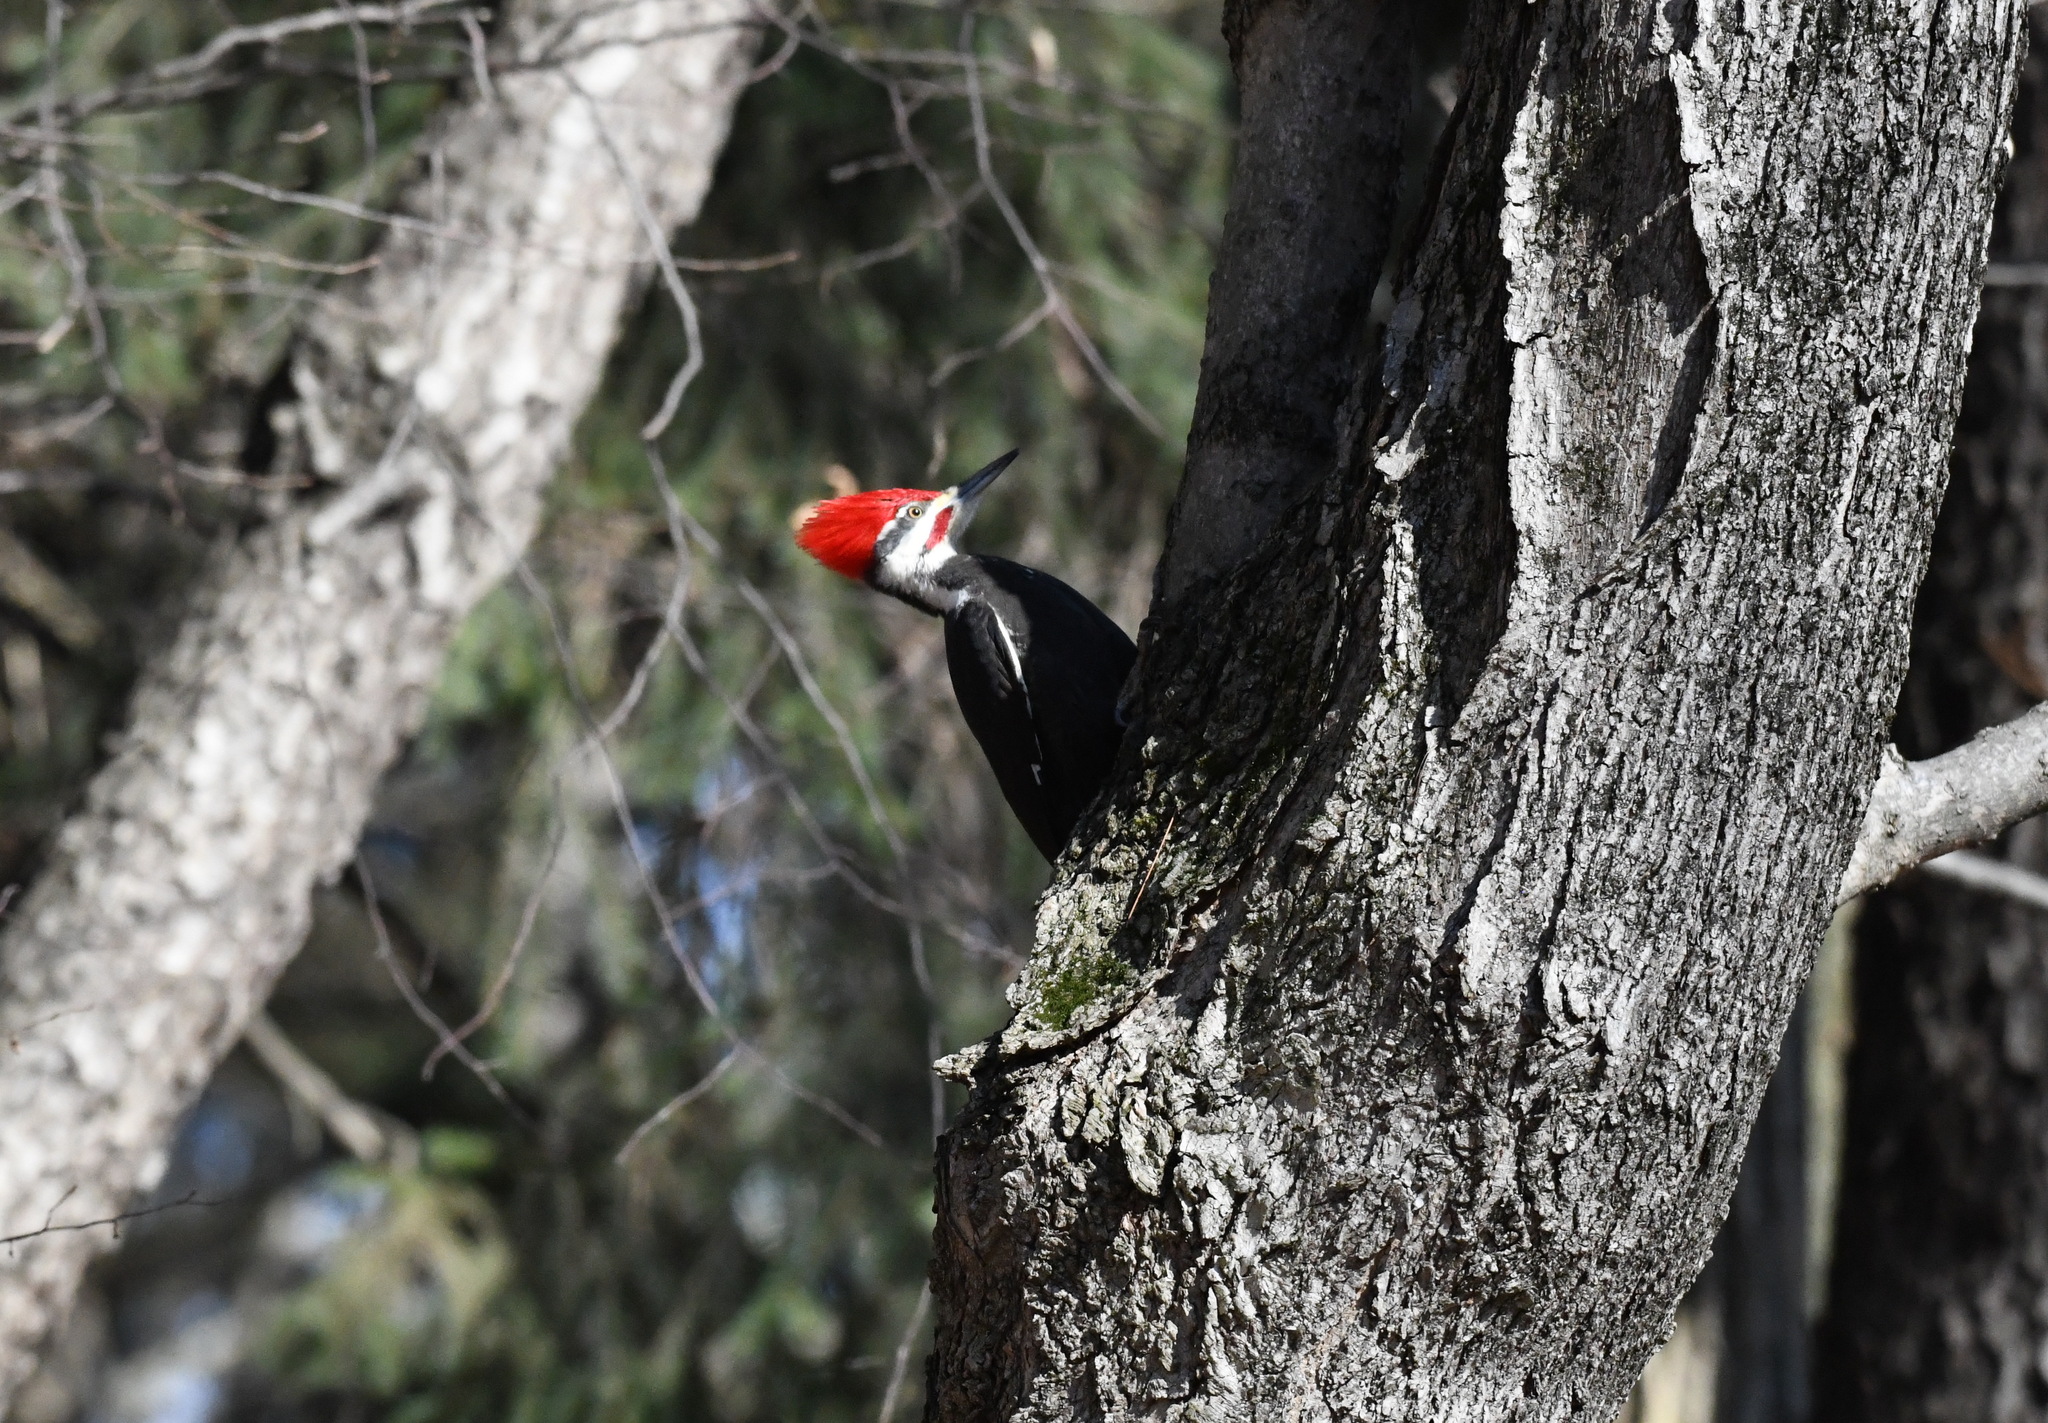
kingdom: Animalia
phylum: Chordata
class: Aves
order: Piciformes
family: Picidae
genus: Dryocopus
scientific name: Dryocopus pileatus
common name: Pileated woodpecker
